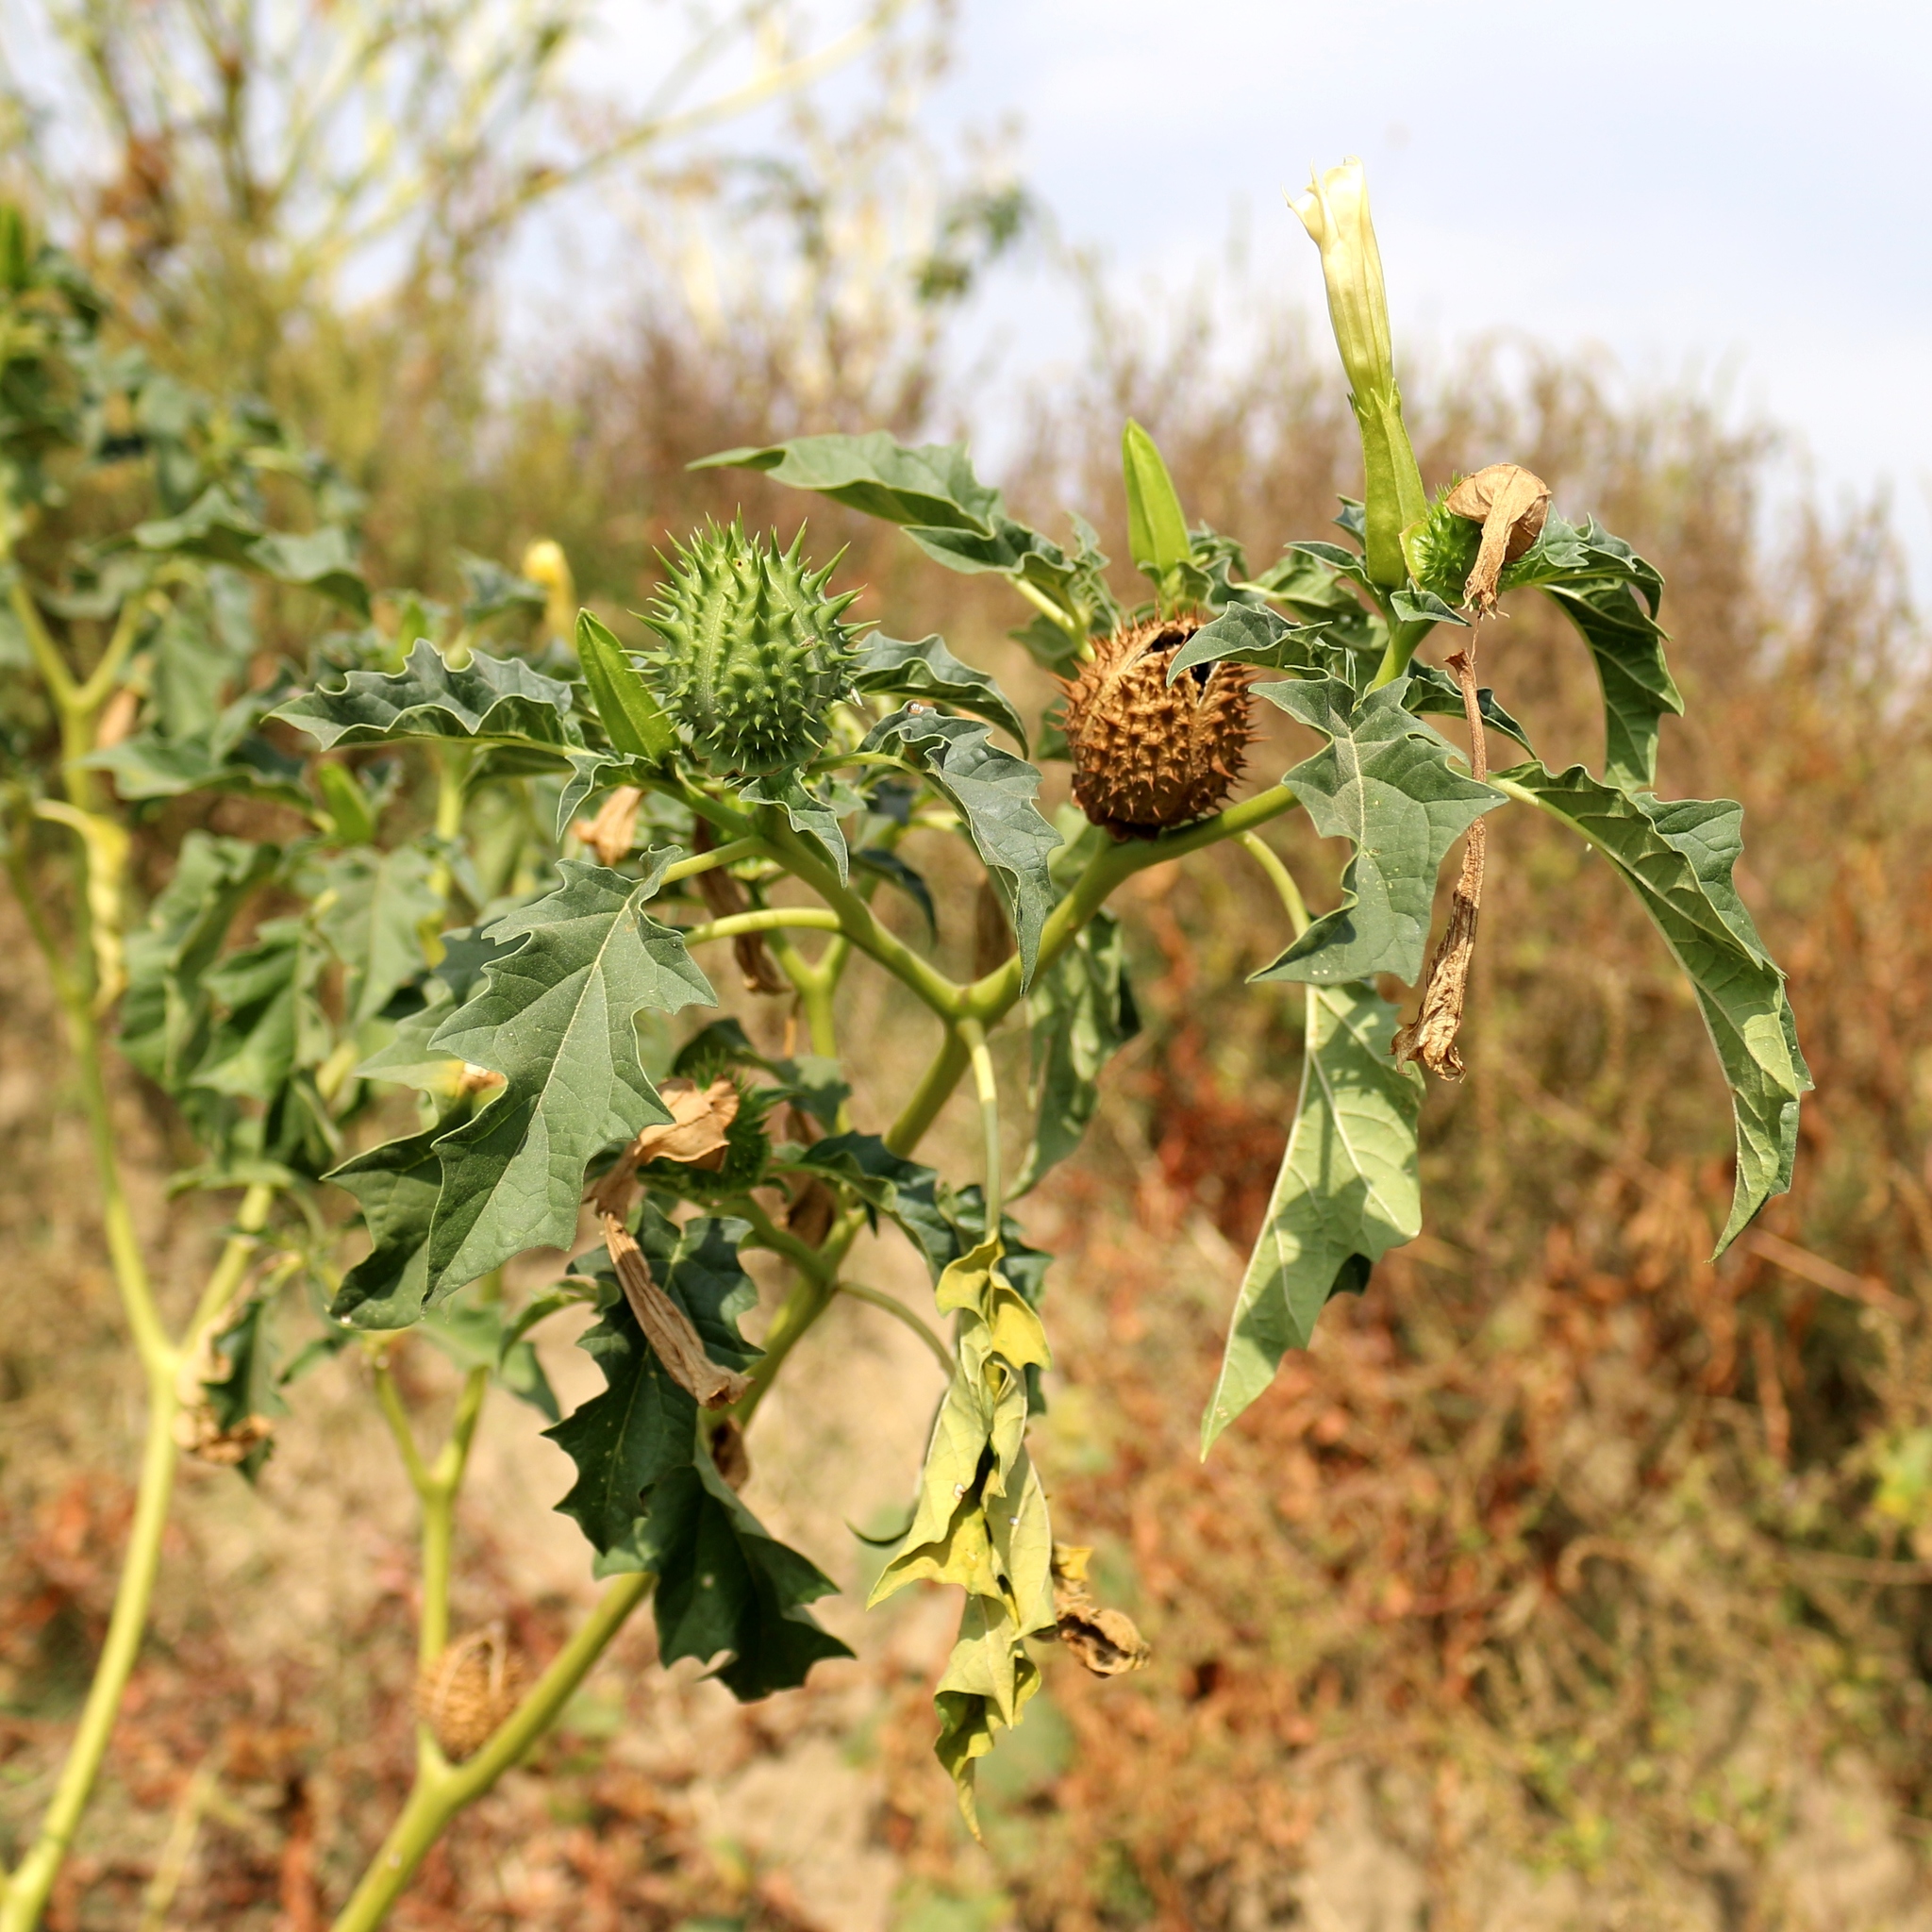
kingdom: Plantae
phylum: Tracheophyta
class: Magnoliopsida
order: Solanales
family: Solanaceae
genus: Datura
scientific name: Datura stramonium
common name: Thorn-apple
